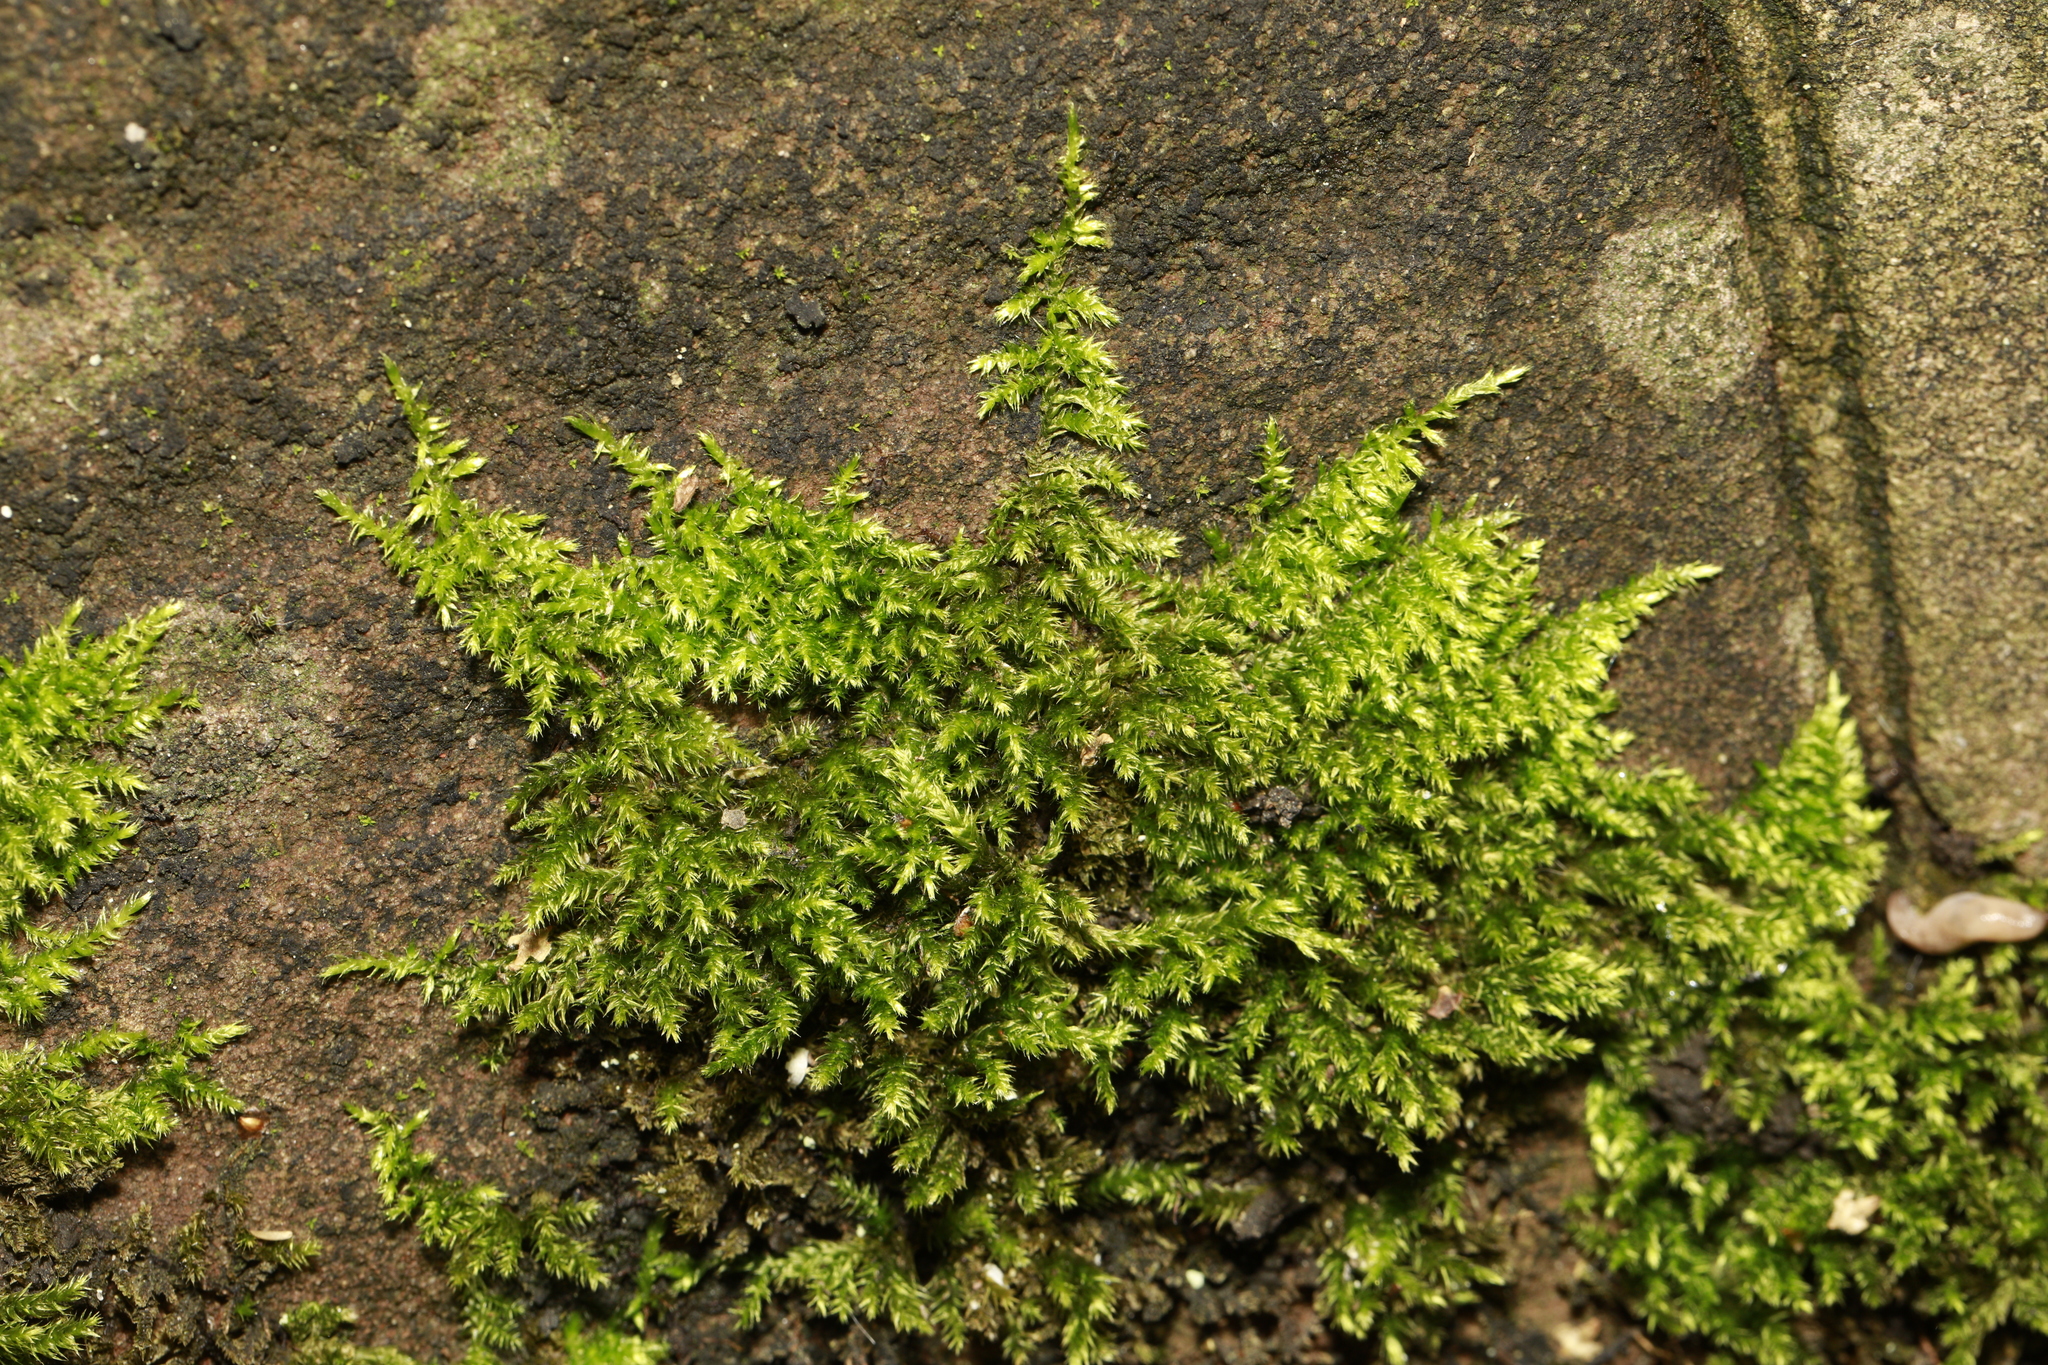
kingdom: Plantae
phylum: Bryophyta
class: Bryopsida
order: Hypnales
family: Brachytheciaceae
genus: Homalothecium
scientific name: Homalothecium sericeum
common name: Silky wall feather-moss
